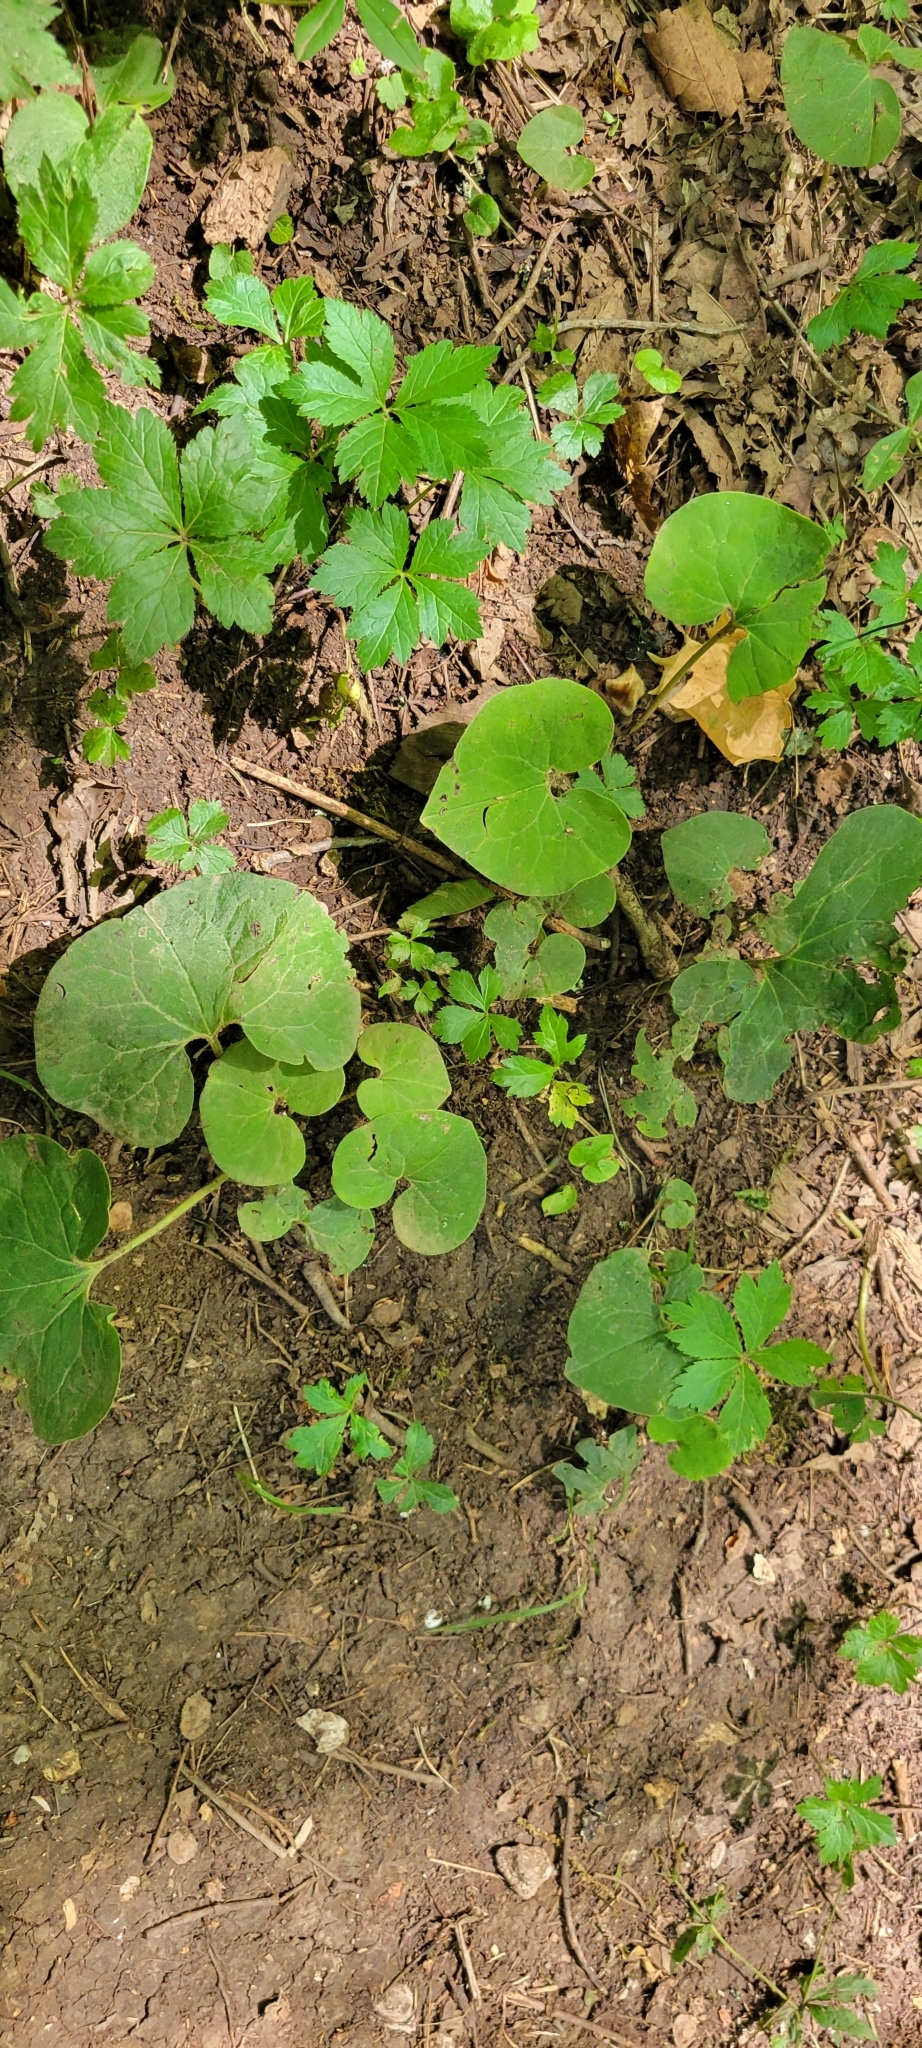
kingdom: Plantae
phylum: Tracheophyta
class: Magnoliopsida
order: Piperales
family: Aristolochiaceae
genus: Asarum
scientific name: Asarum canadense
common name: Wild ginger
